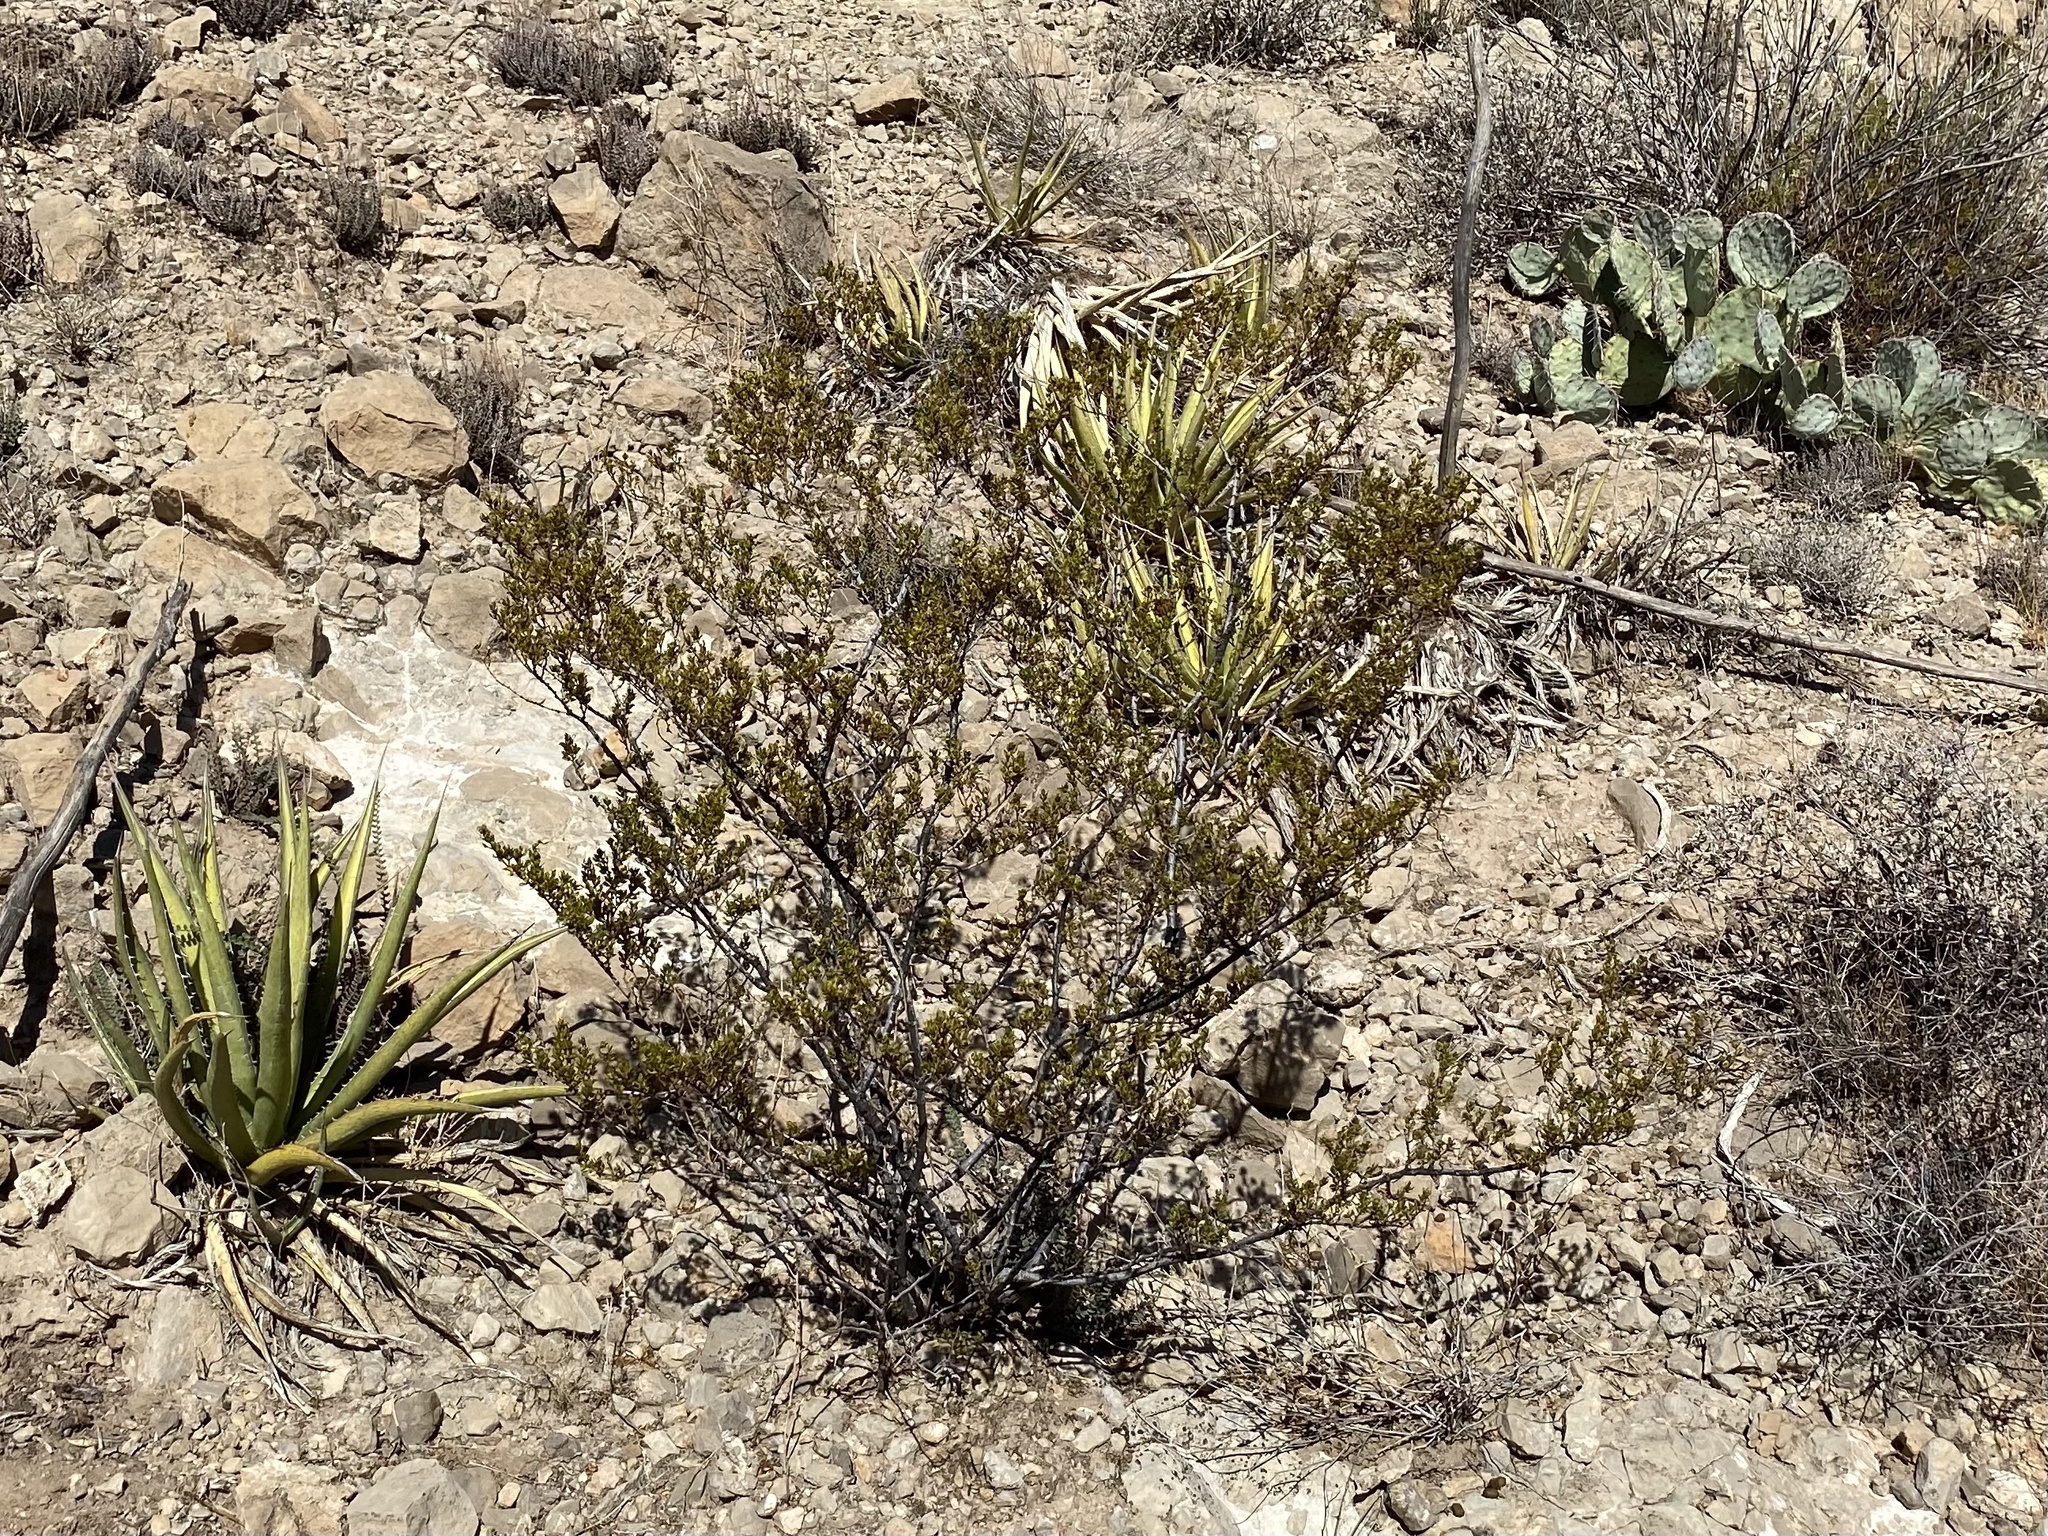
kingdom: Plantae
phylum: Tracheophyta
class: Magnoliopsida
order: Zygophyllales
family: Zygophyllaceae
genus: Larrea
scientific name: Larrea tridentata
